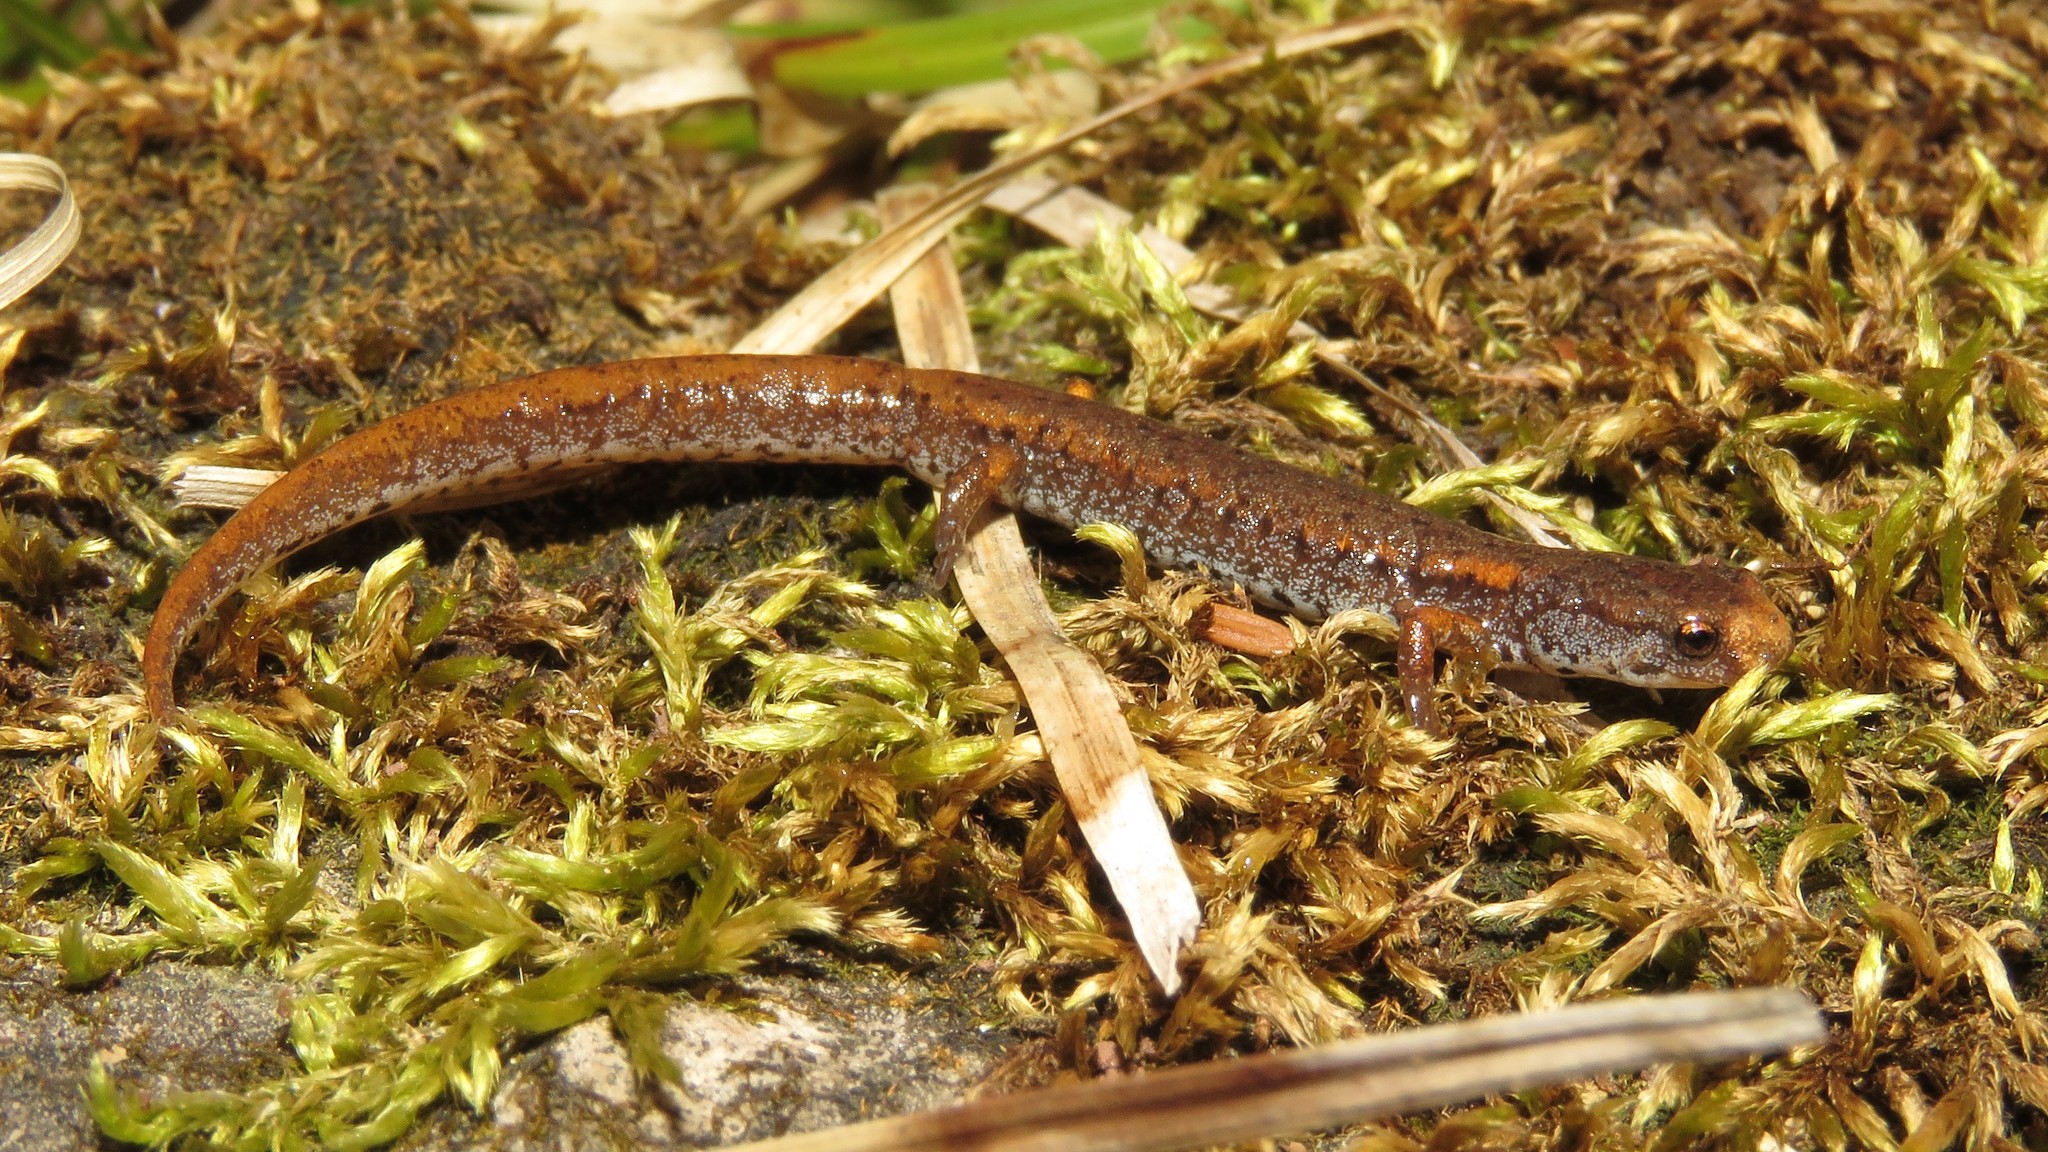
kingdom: Animalia
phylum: Chordata
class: Amphibia
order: Caudata
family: Plethodontidae
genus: Hemidactylium
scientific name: Hemidactylium scutatum
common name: Four-toed salamander
